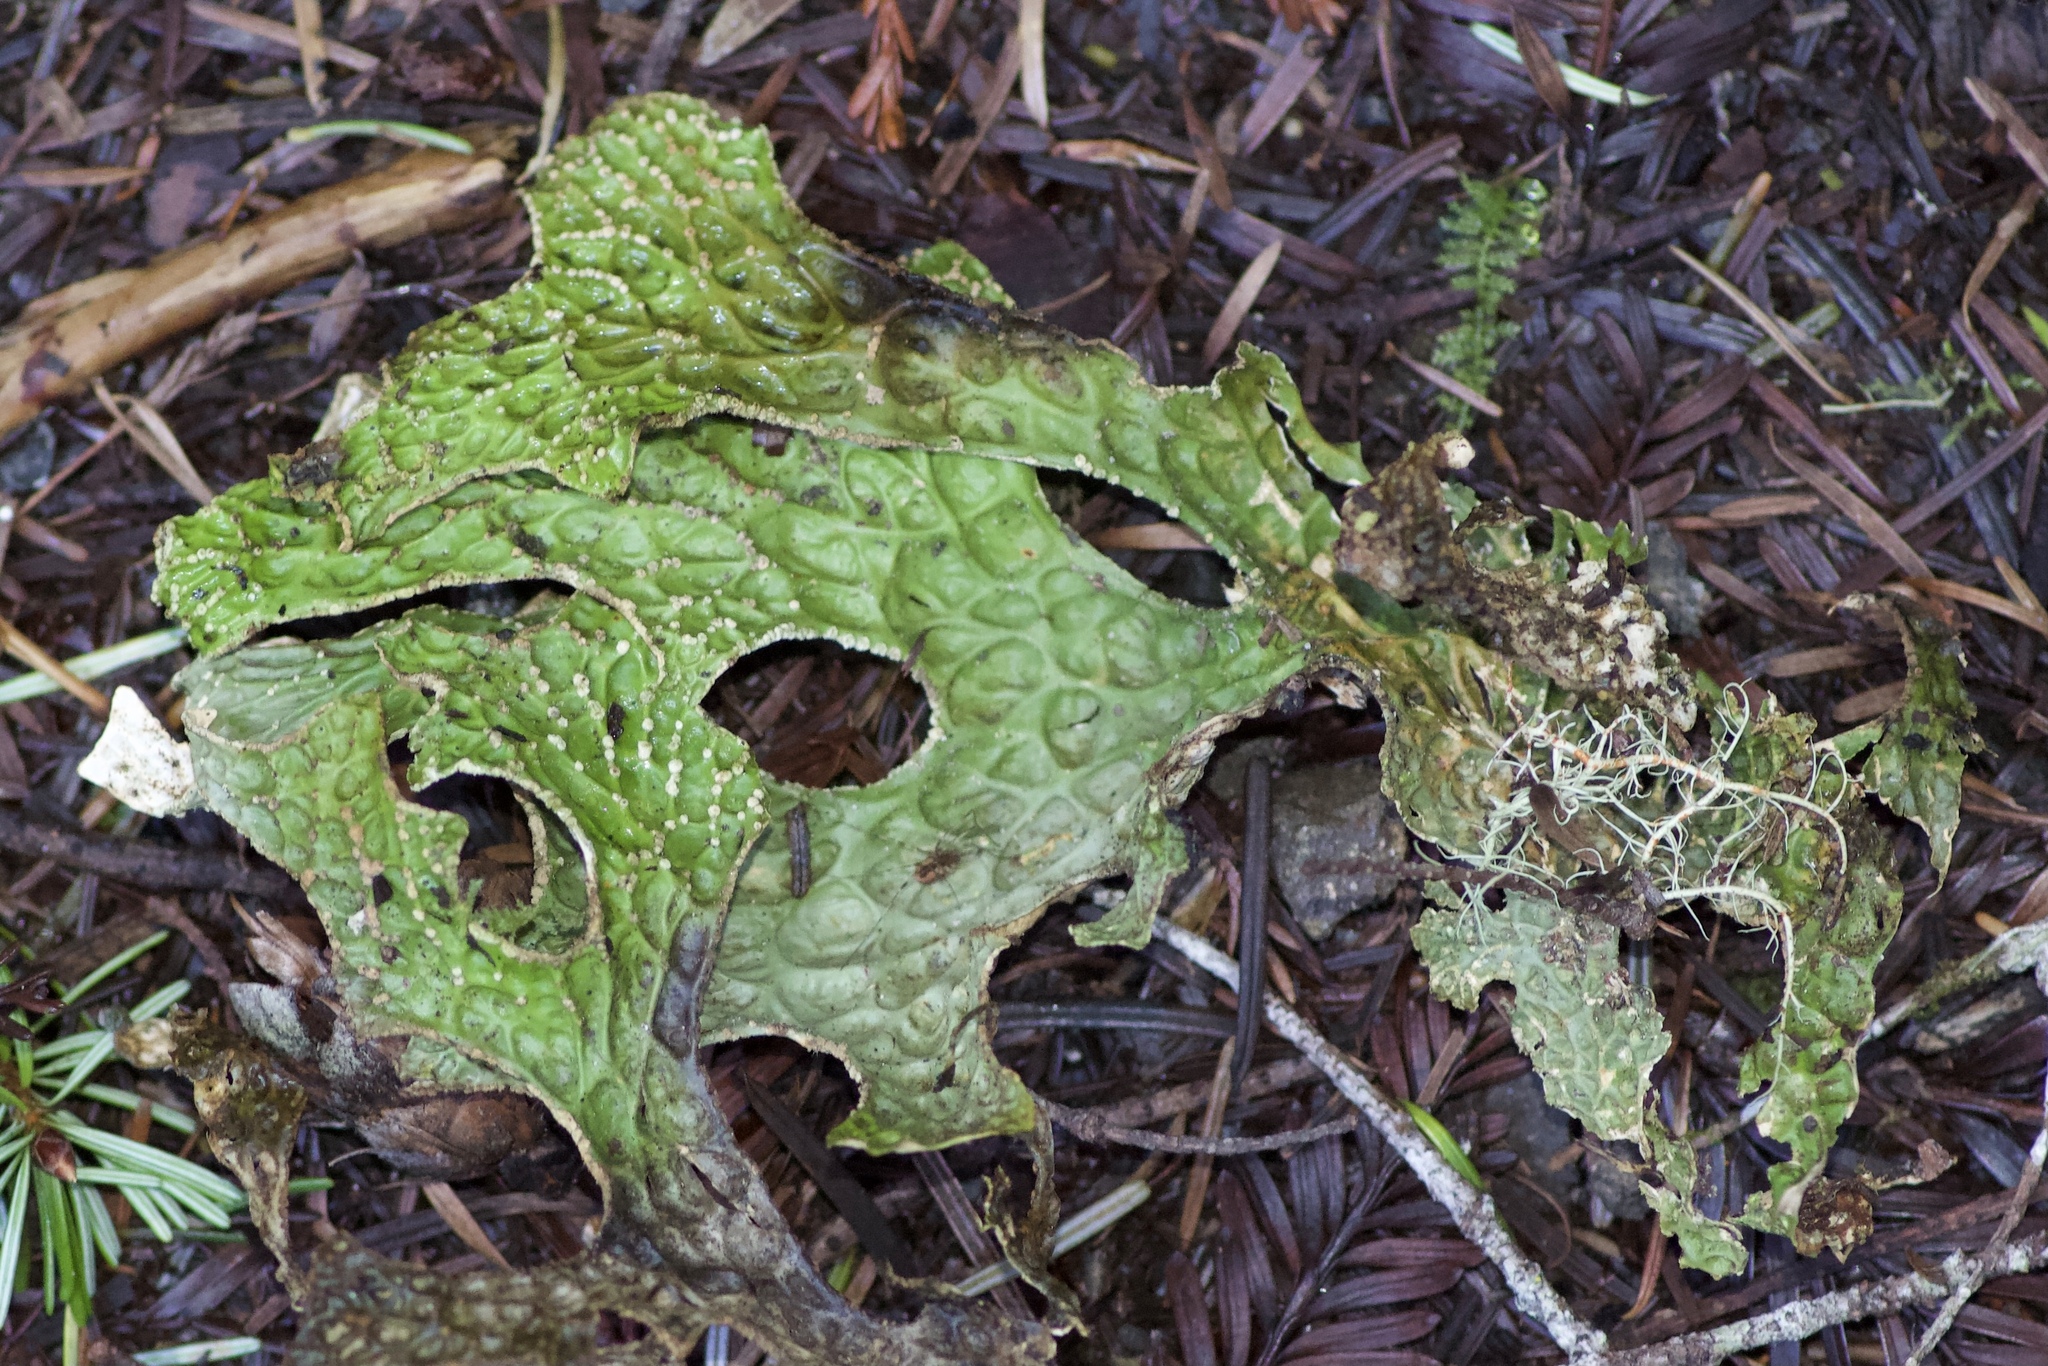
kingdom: Fungi
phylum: Ascomycota
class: Lecanoromycetes
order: Peltigerales
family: Lobariaceae
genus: Lobaria
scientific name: Lobaria pulmonaria
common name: Lungwort
